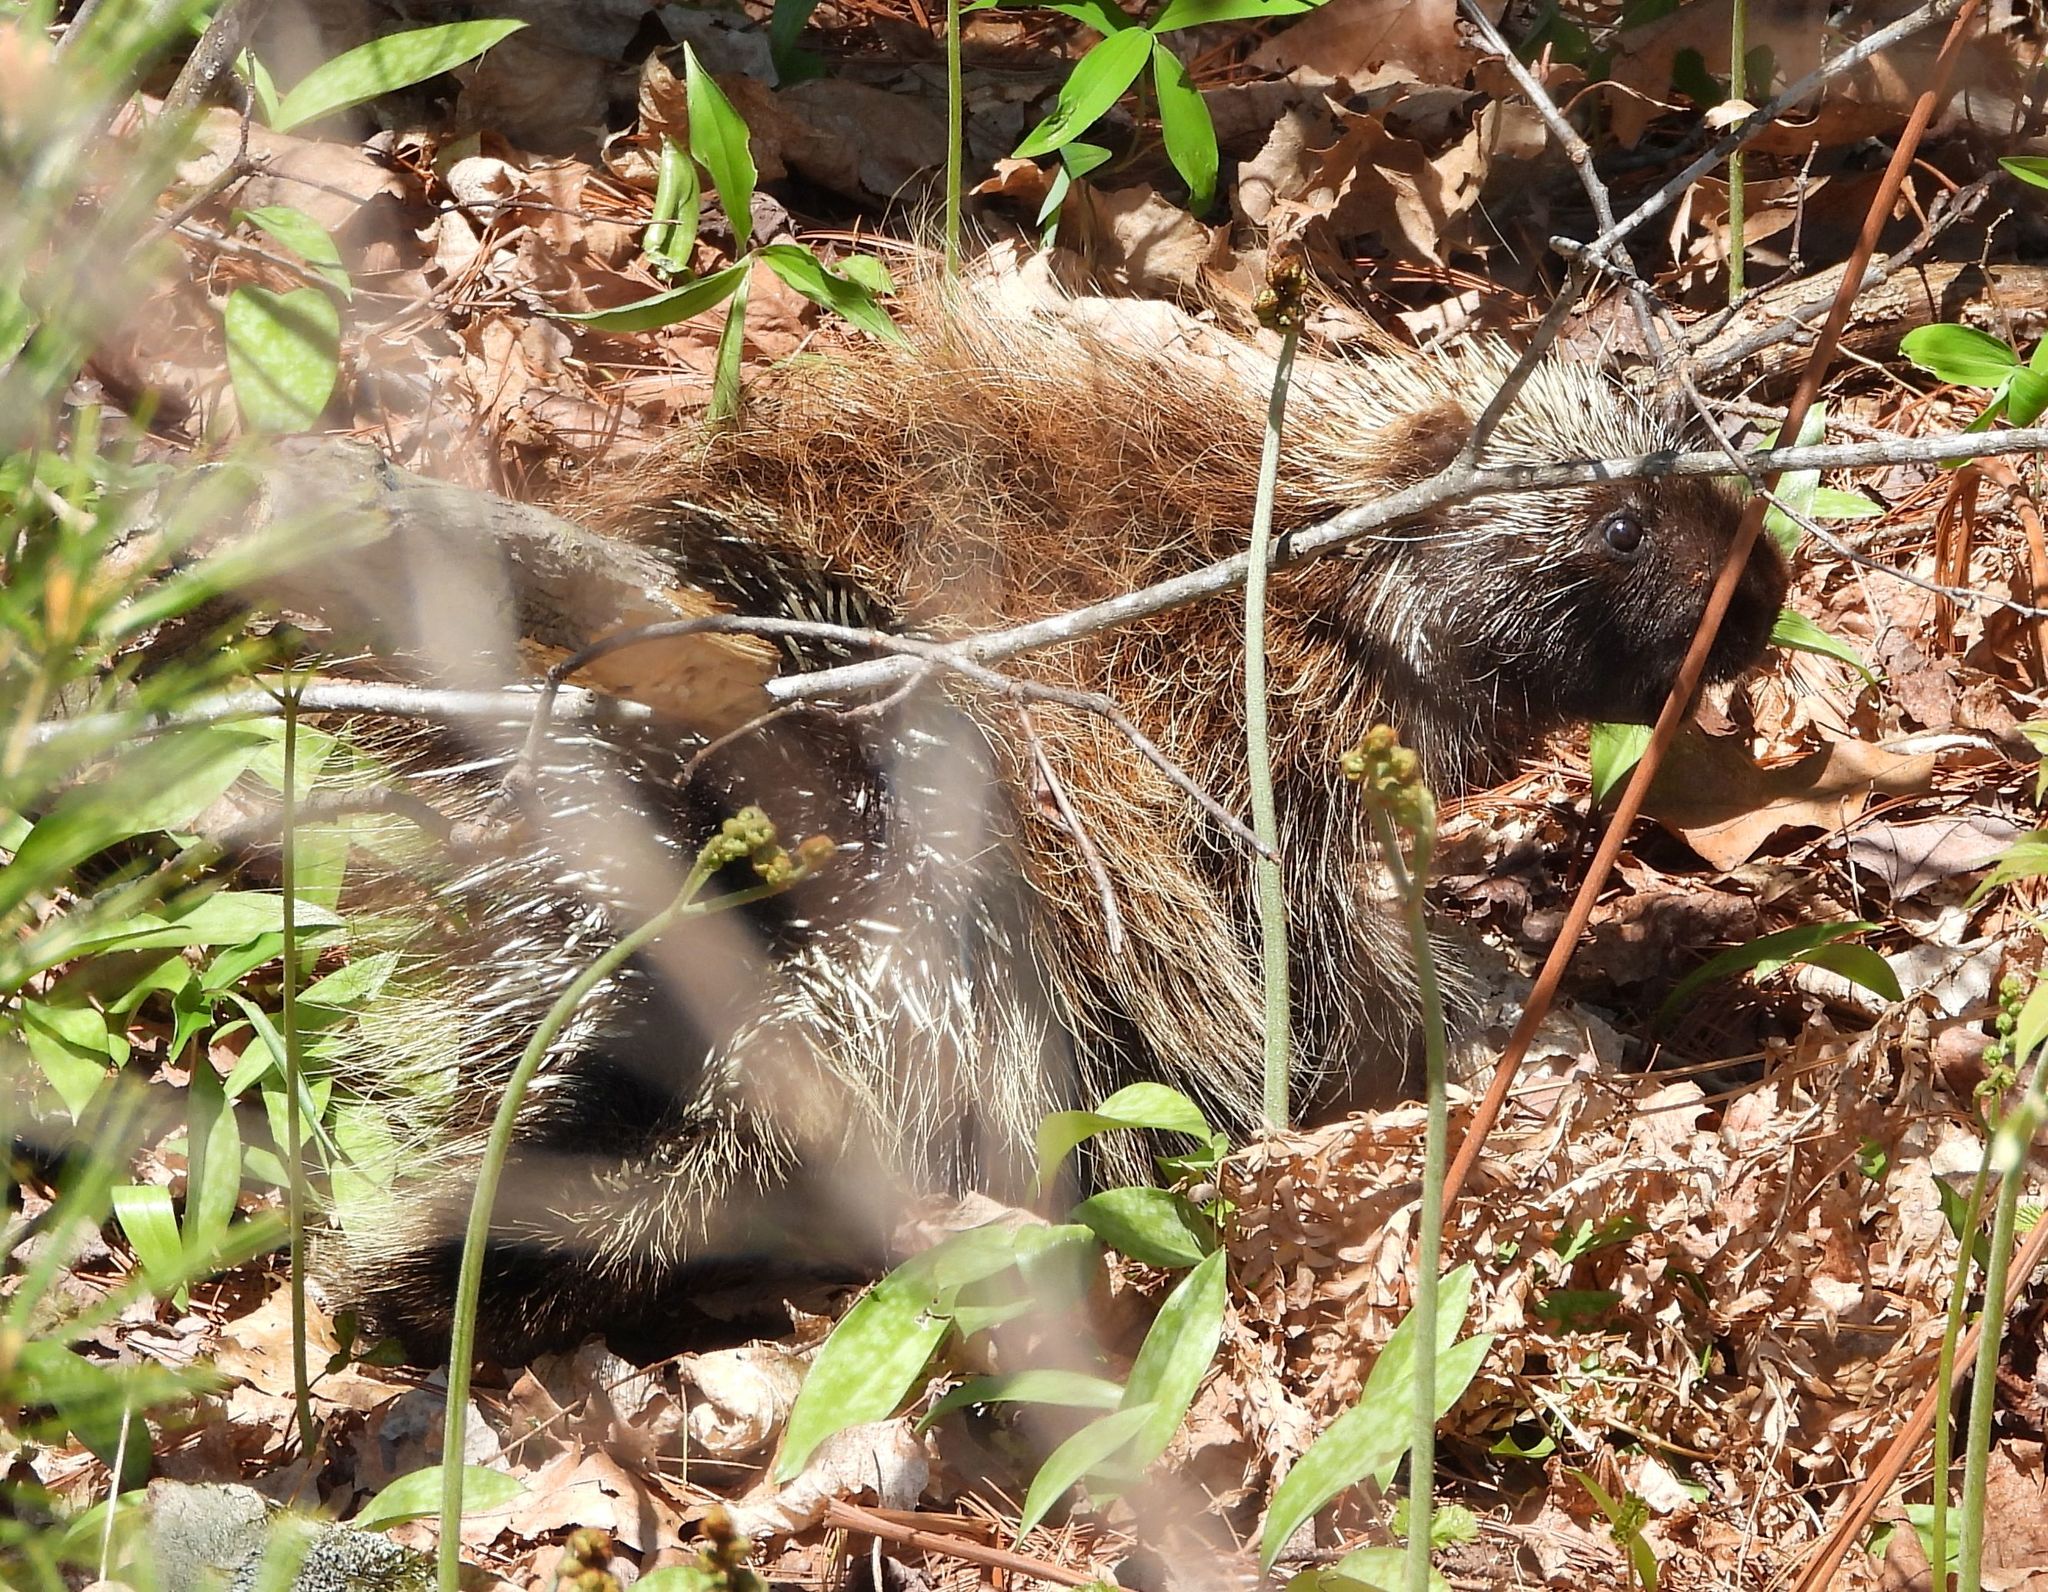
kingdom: Animalia
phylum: Chordata
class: Mammalia
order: Rodentia
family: Erethizontidae
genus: Erethizon
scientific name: Erethizon dorsatus
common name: North american porcupine
